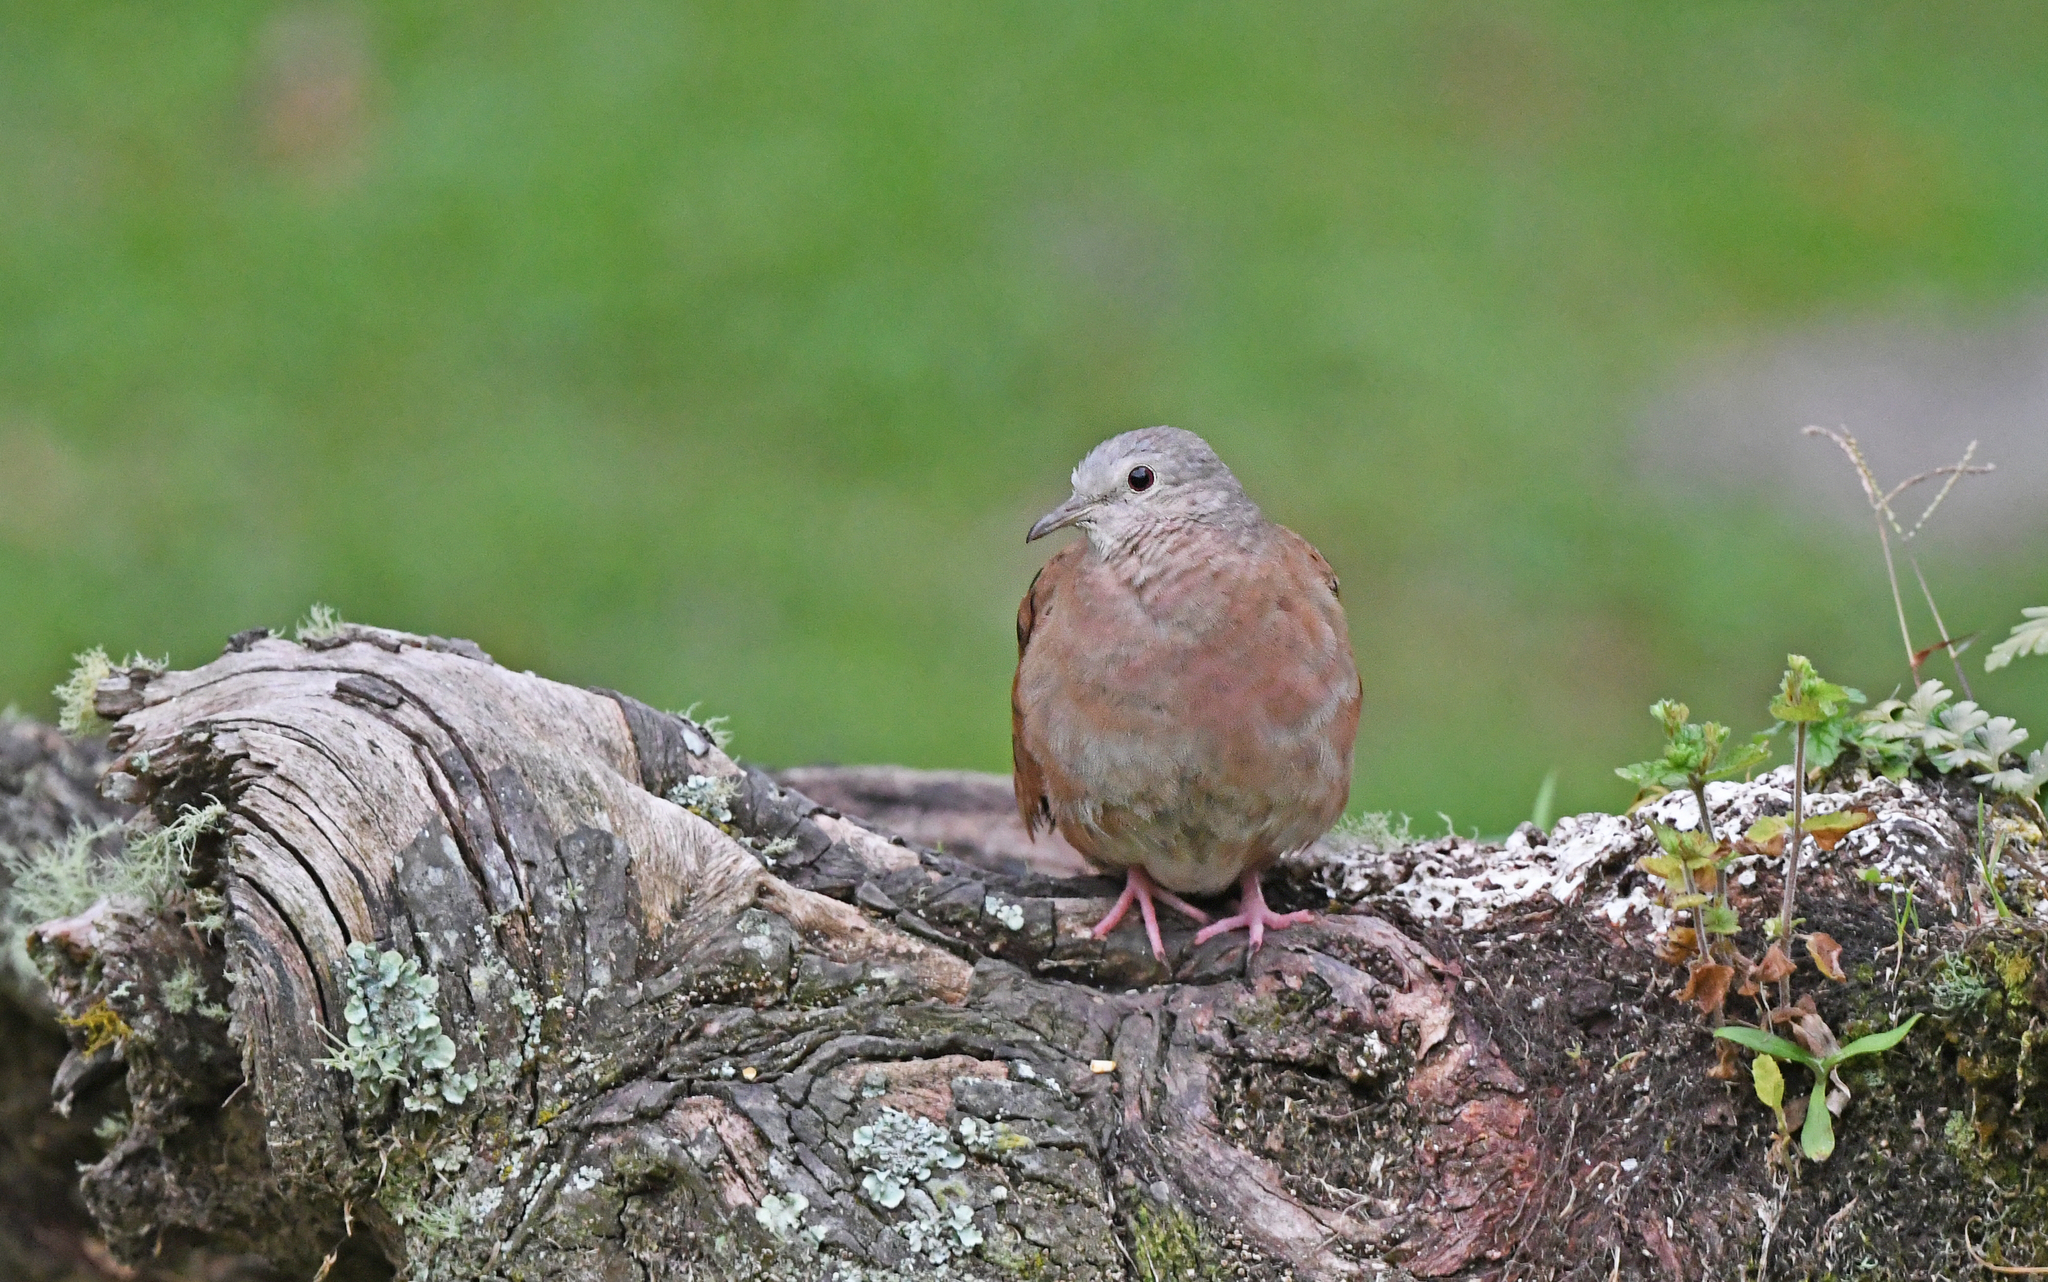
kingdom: Animalia
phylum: Chordata
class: Aves
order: Columbiformes
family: Columbidae
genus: Columbina
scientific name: Columbina talpacoti
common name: Ruddy ground dove
